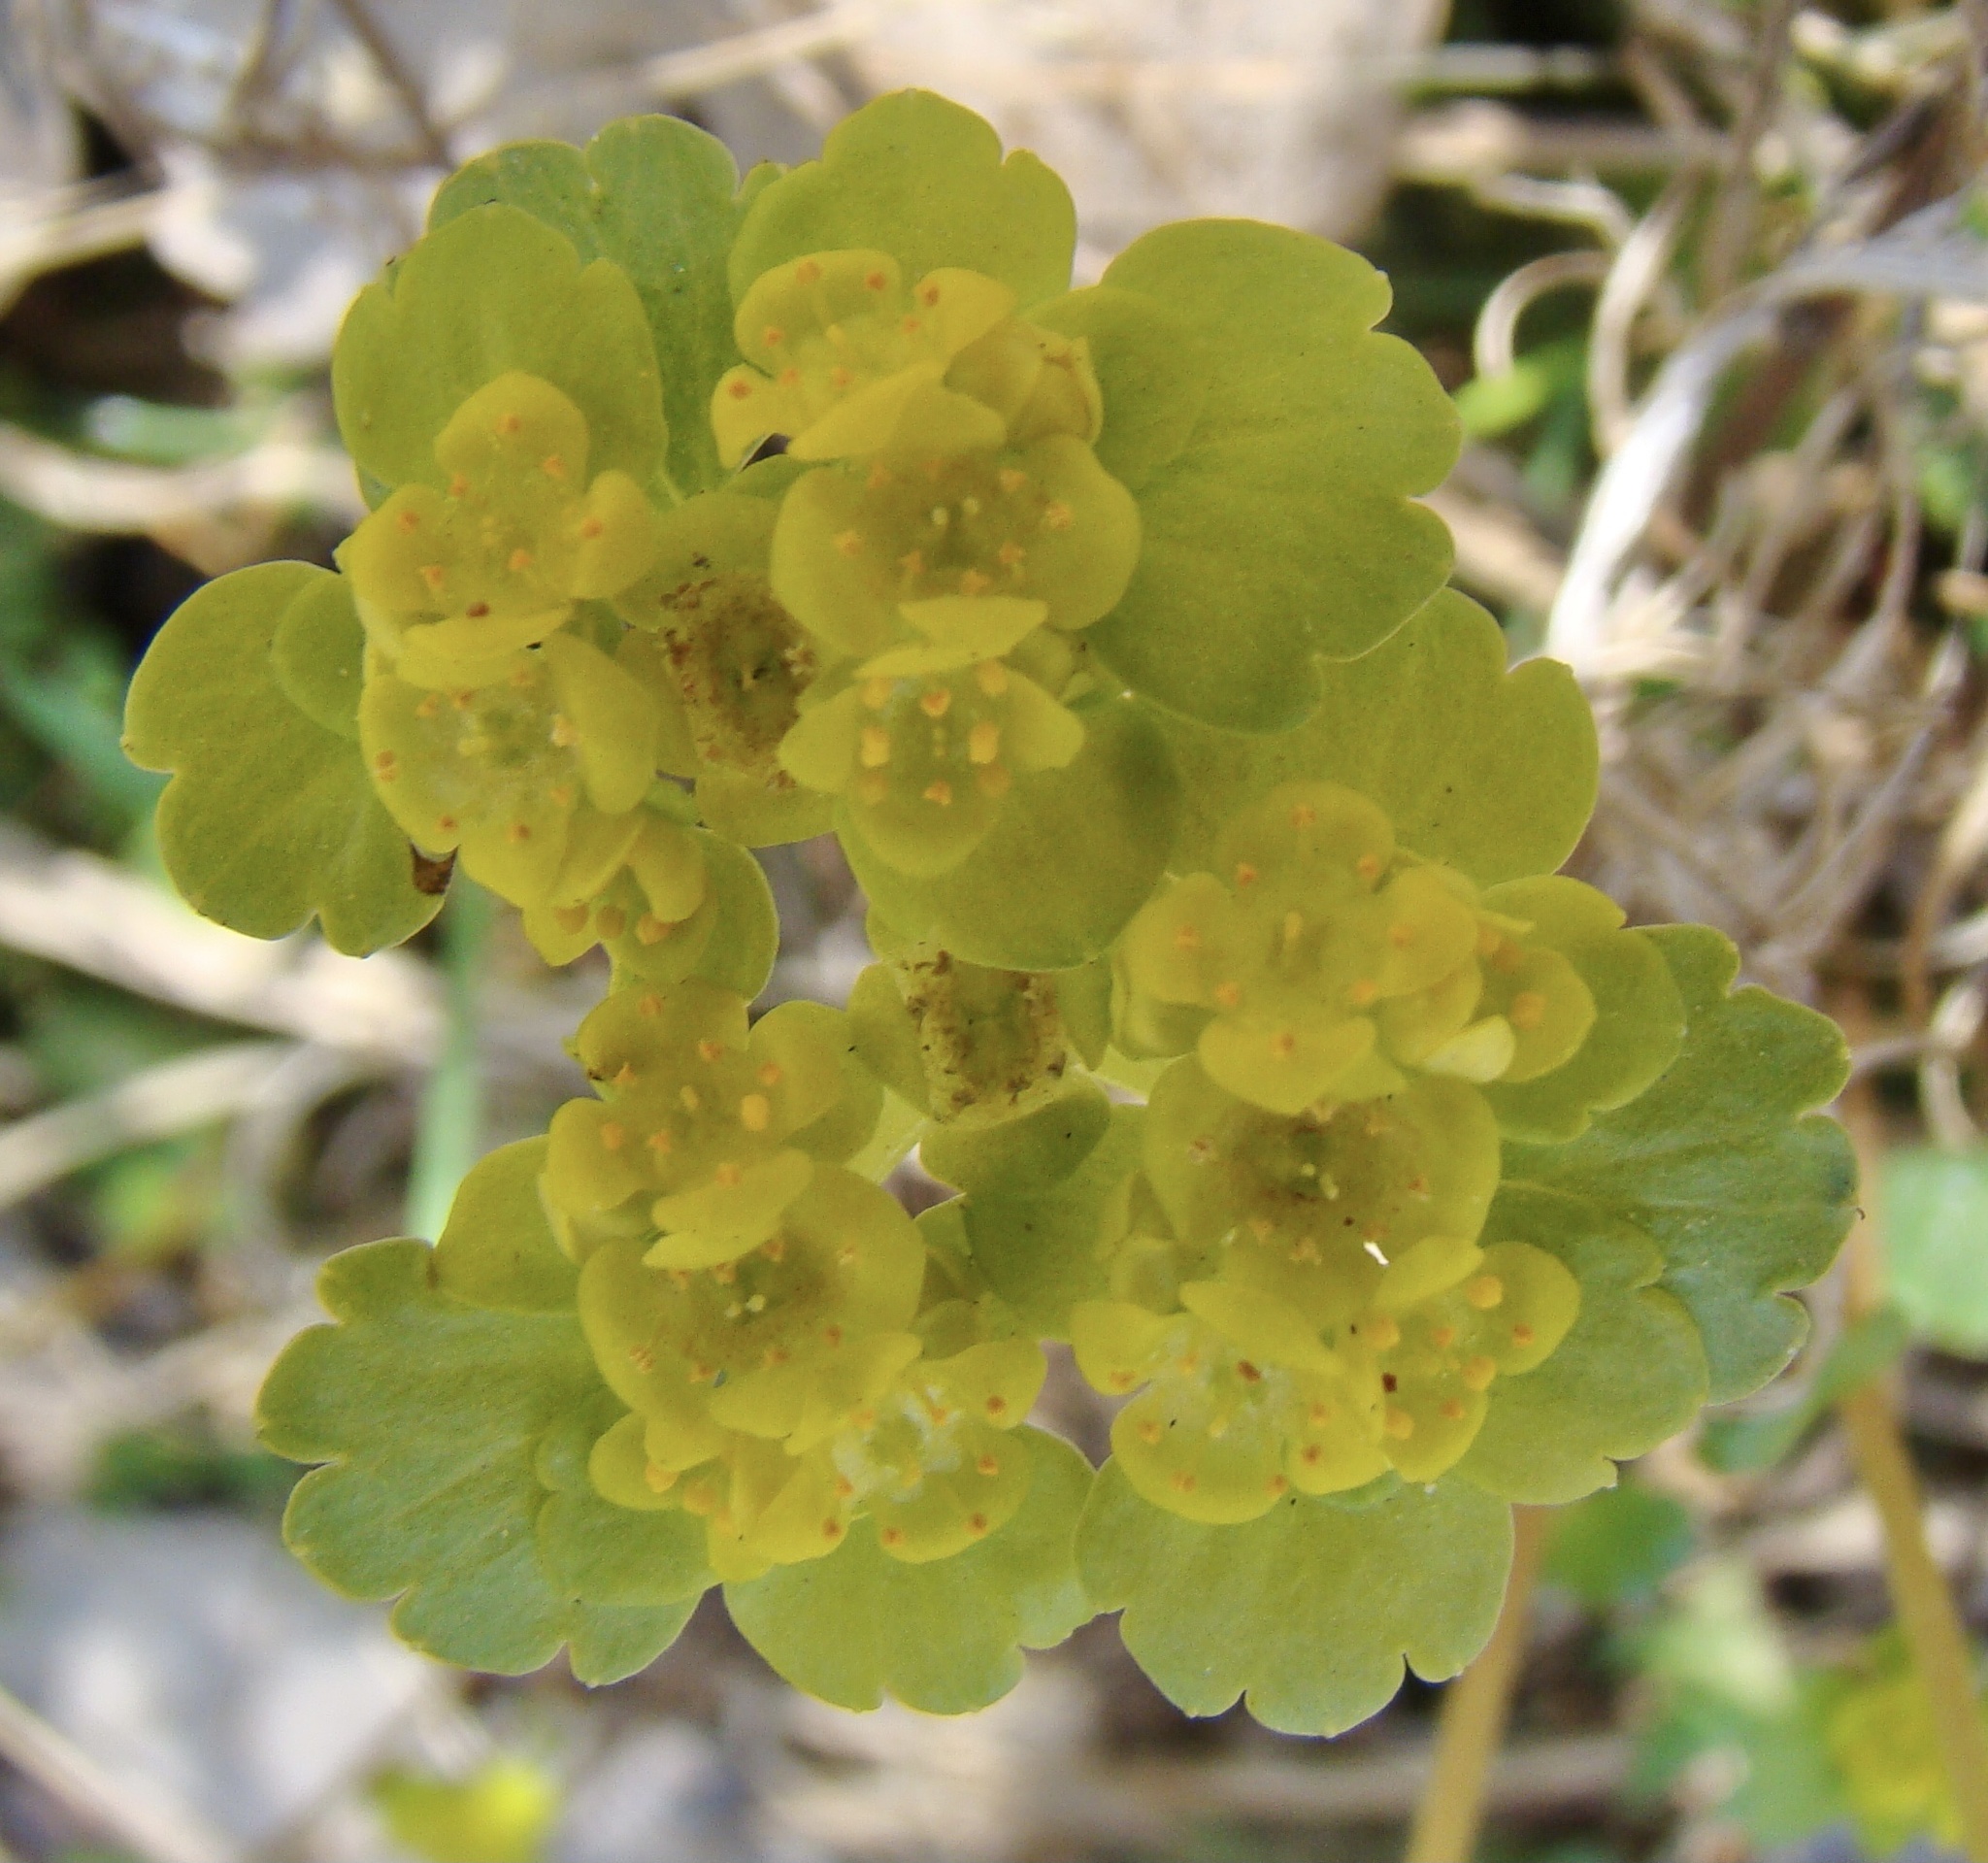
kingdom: Plantae
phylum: Tracheophyta
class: Magnoliopsida
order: Saxifragales
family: Saxifragaceae
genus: Chrysosplenium
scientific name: Chrysosplenium alternifolium
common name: Alternate-leaved golden-saxifrage
